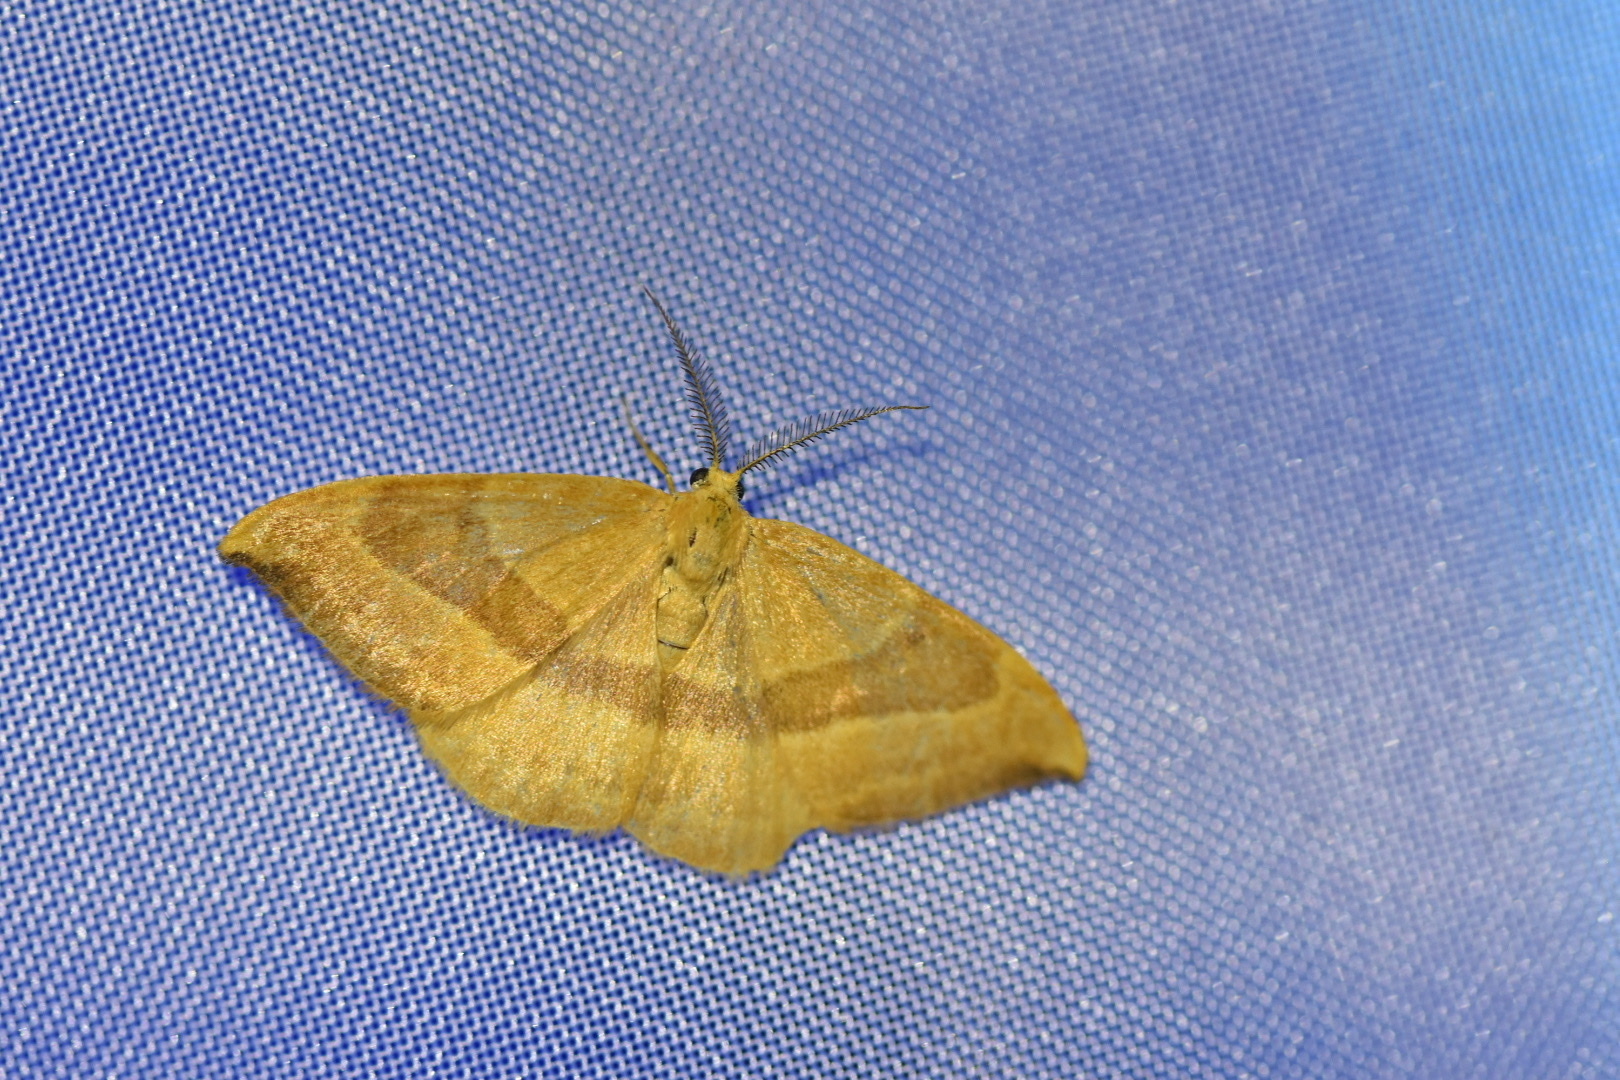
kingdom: Animalia
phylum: Arthropoda
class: Insecta
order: Lepidoptera
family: Drepanidae
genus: Watsonalla
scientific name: Watsonalla cultraria
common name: Barred hook-tip
